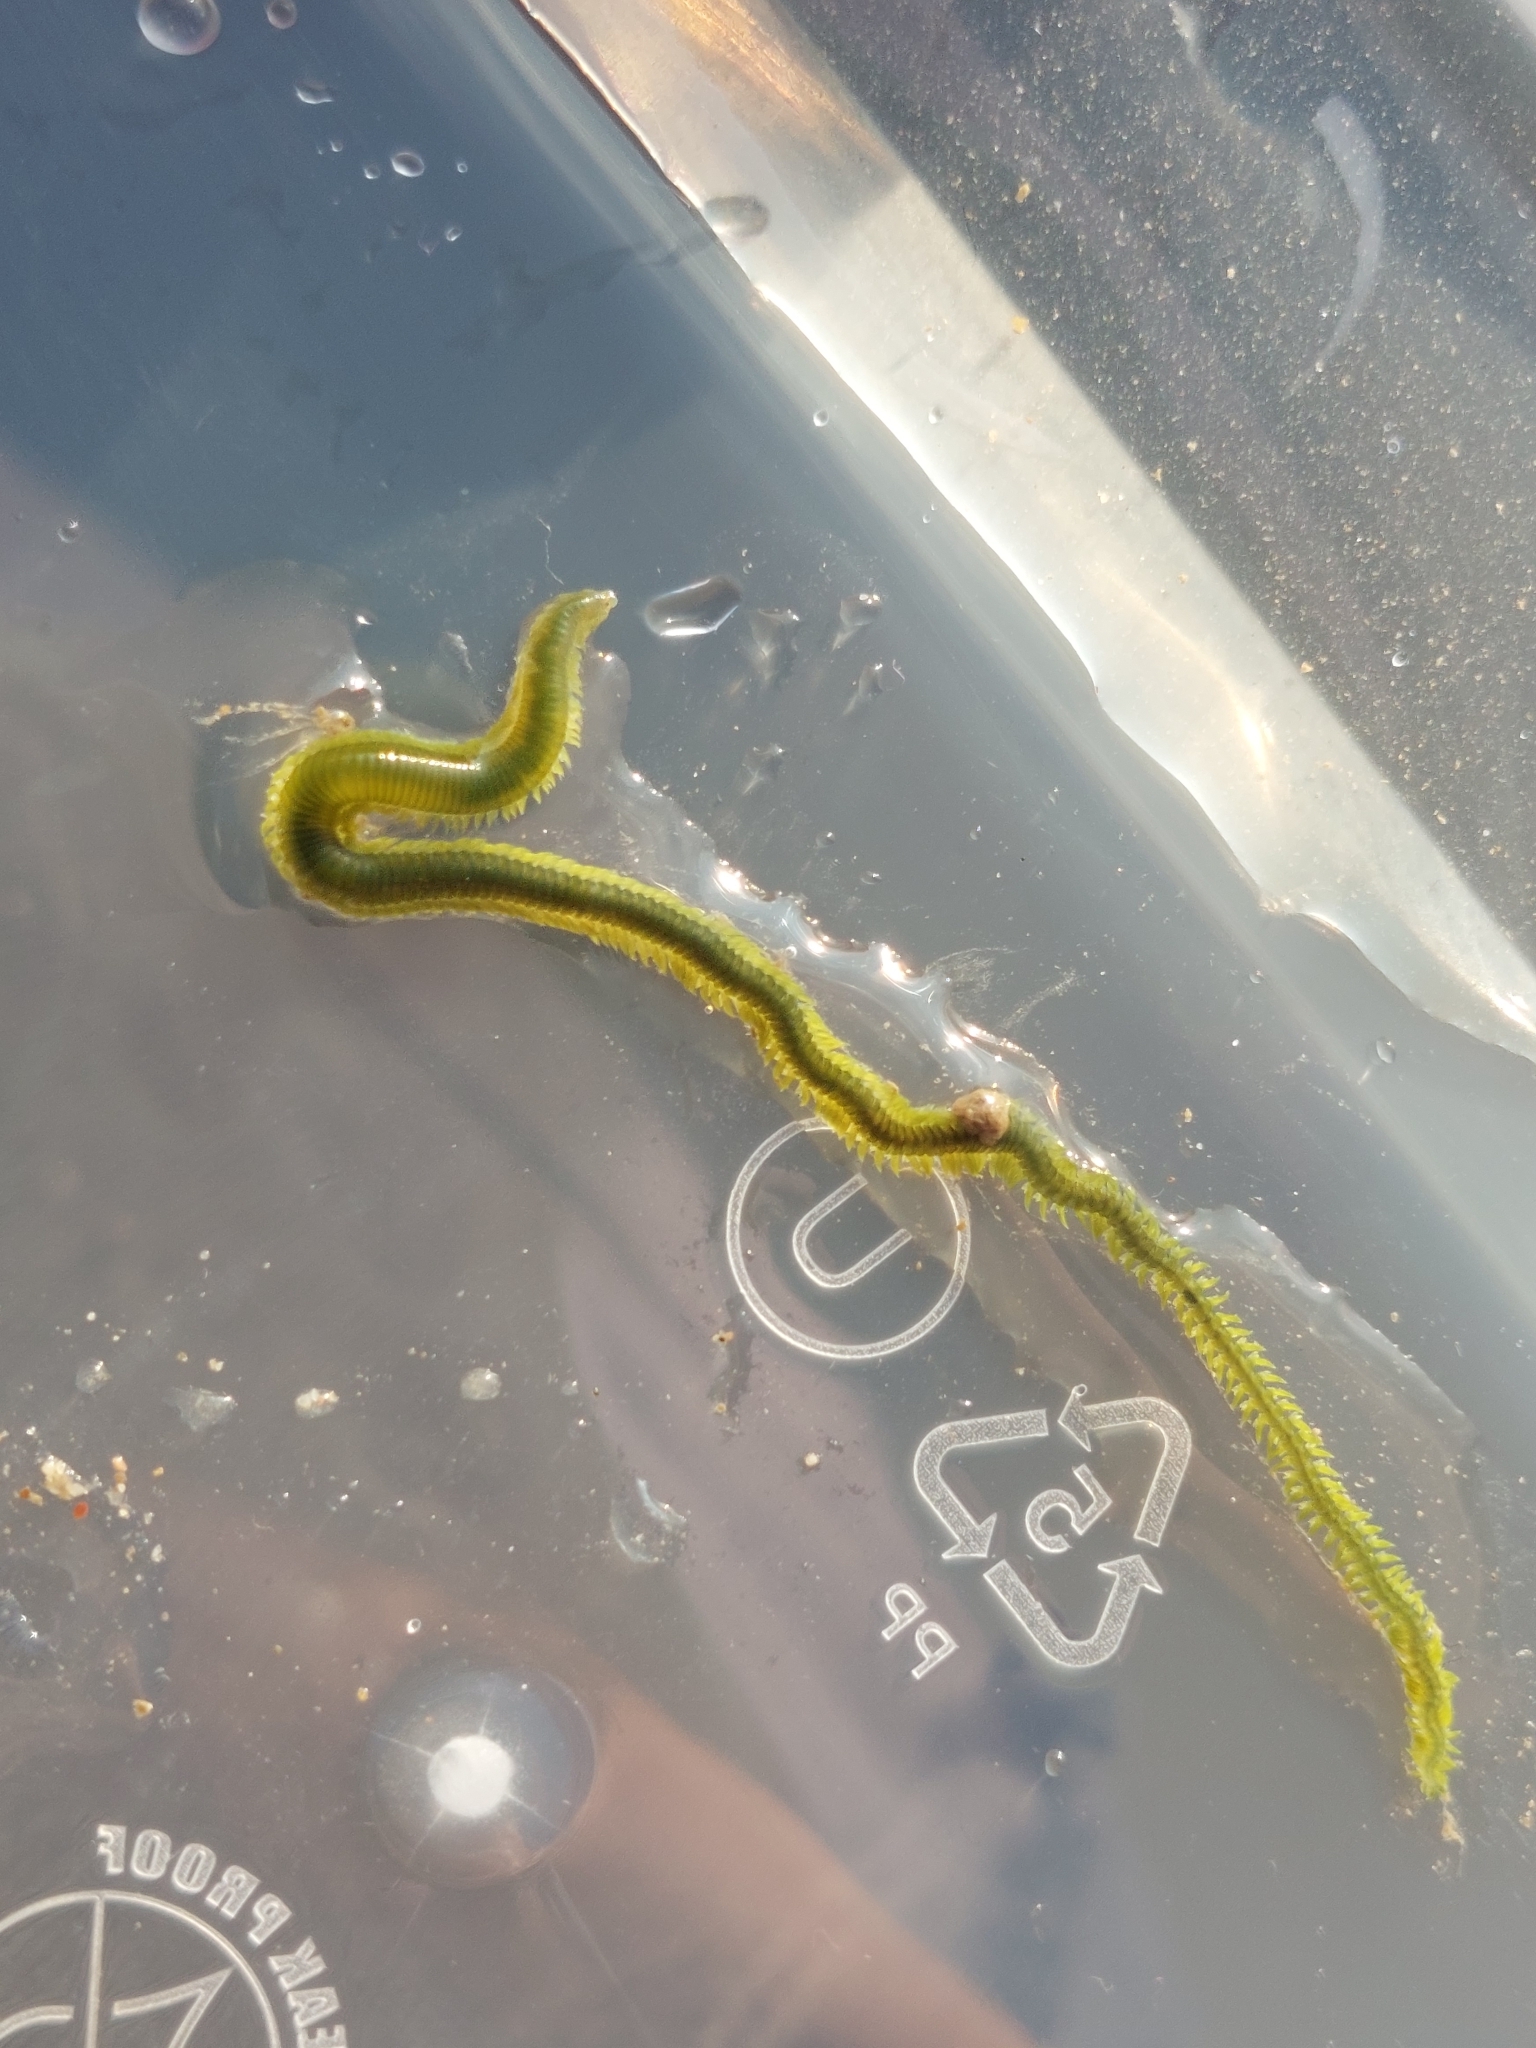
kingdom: Animalia
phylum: Annelida
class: Polychaeta
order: Phyllodocida
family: Phyllodocidae
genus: Eulalia
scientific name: Eulalia clavigera
